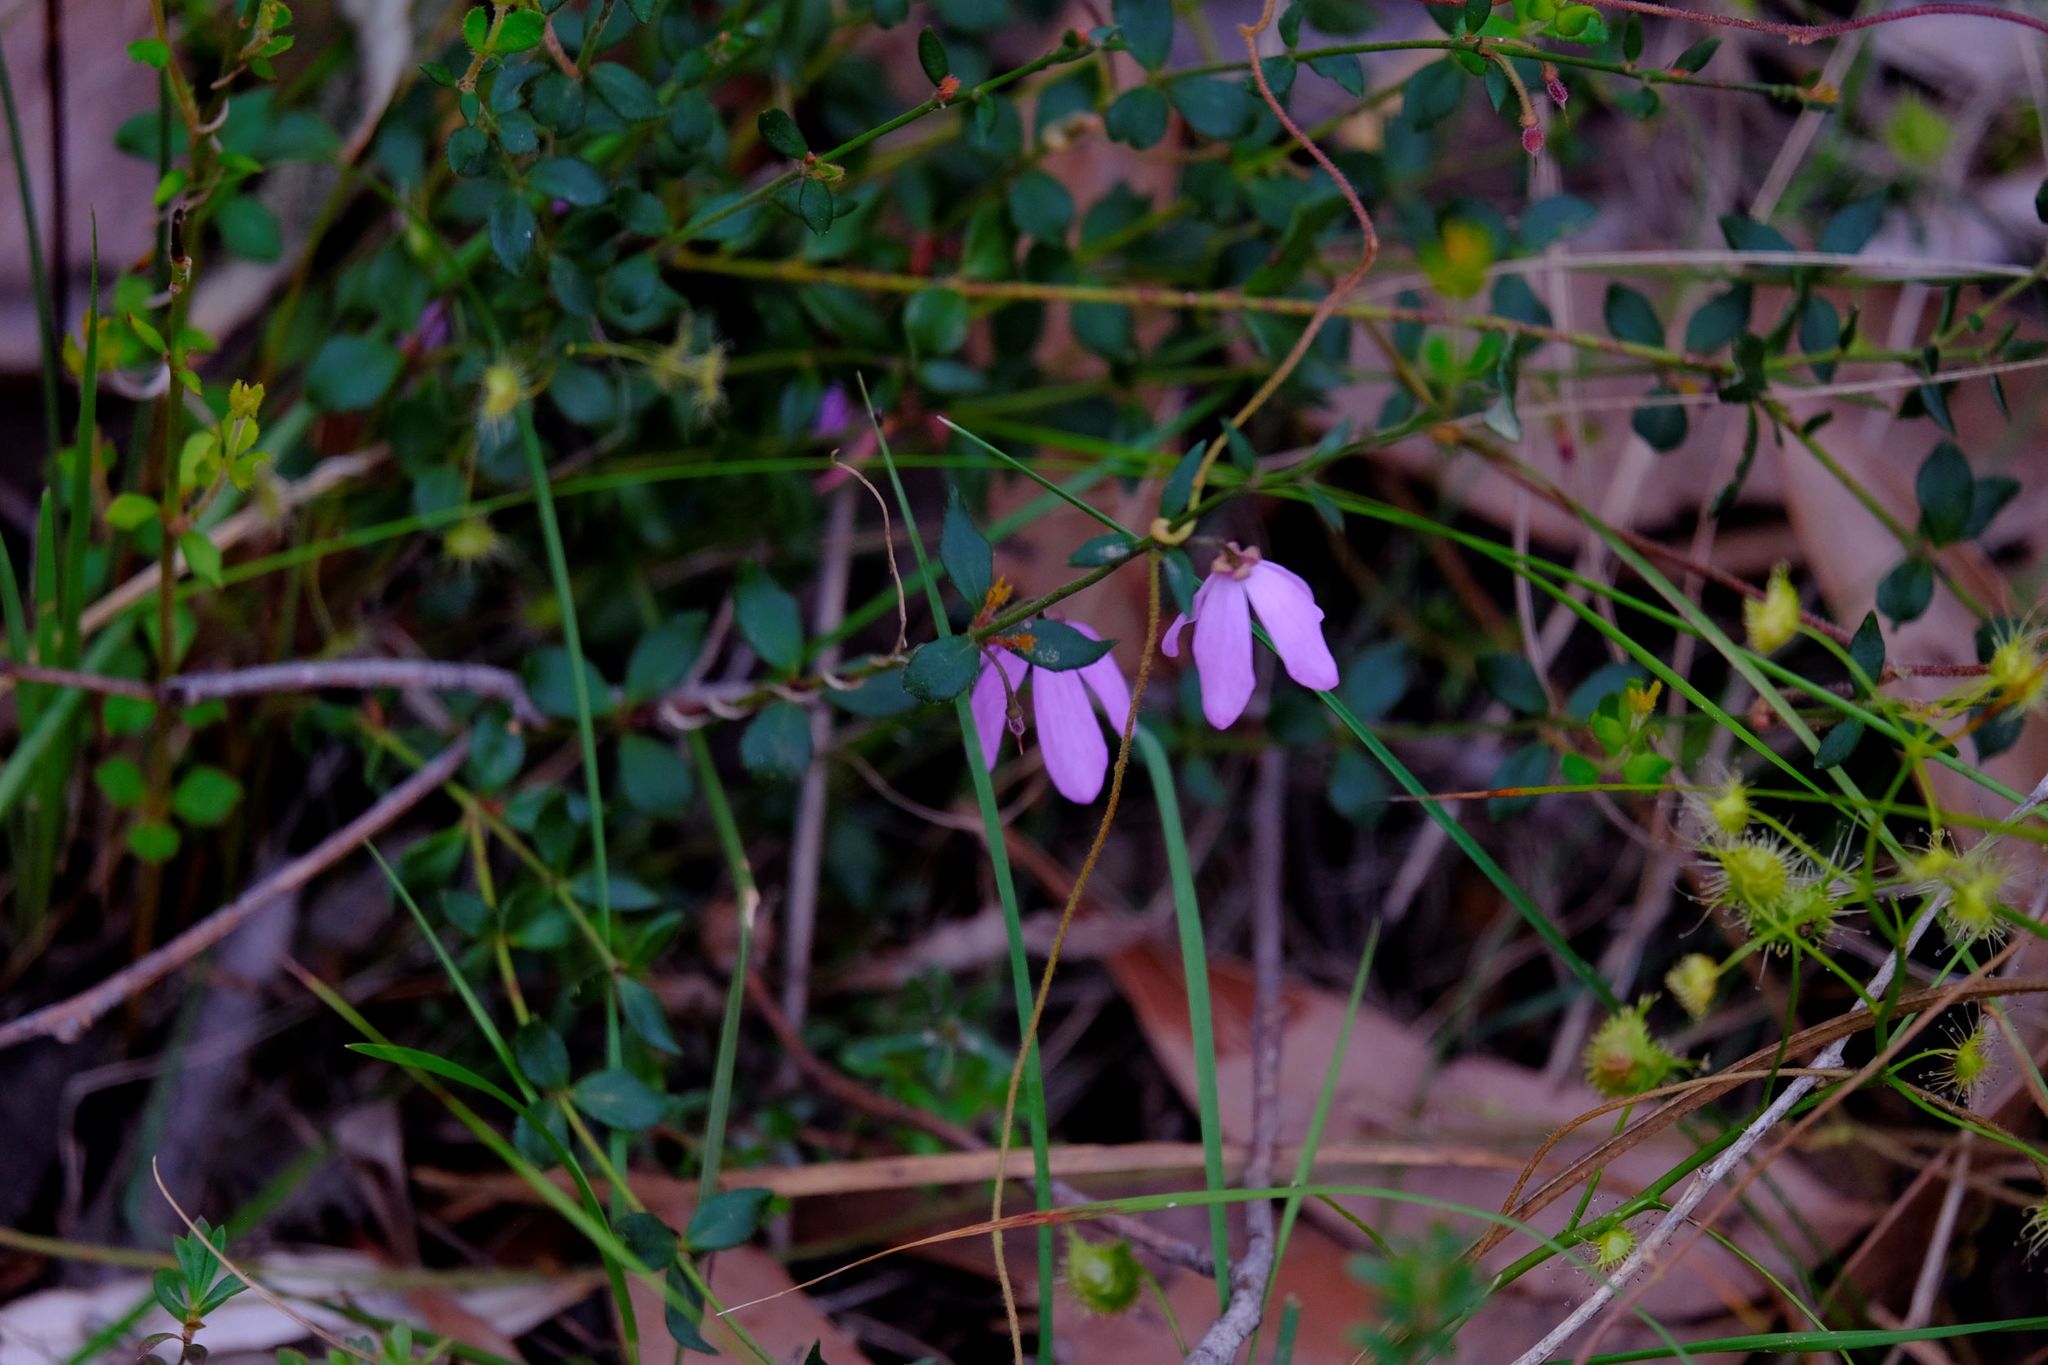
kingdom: Plantae
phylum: Tracheophyta
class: Magnoliopsida
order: Oxalidales
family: Elaeocarpaceae
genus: Tetratheca
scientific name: Tetratheca ciliata
